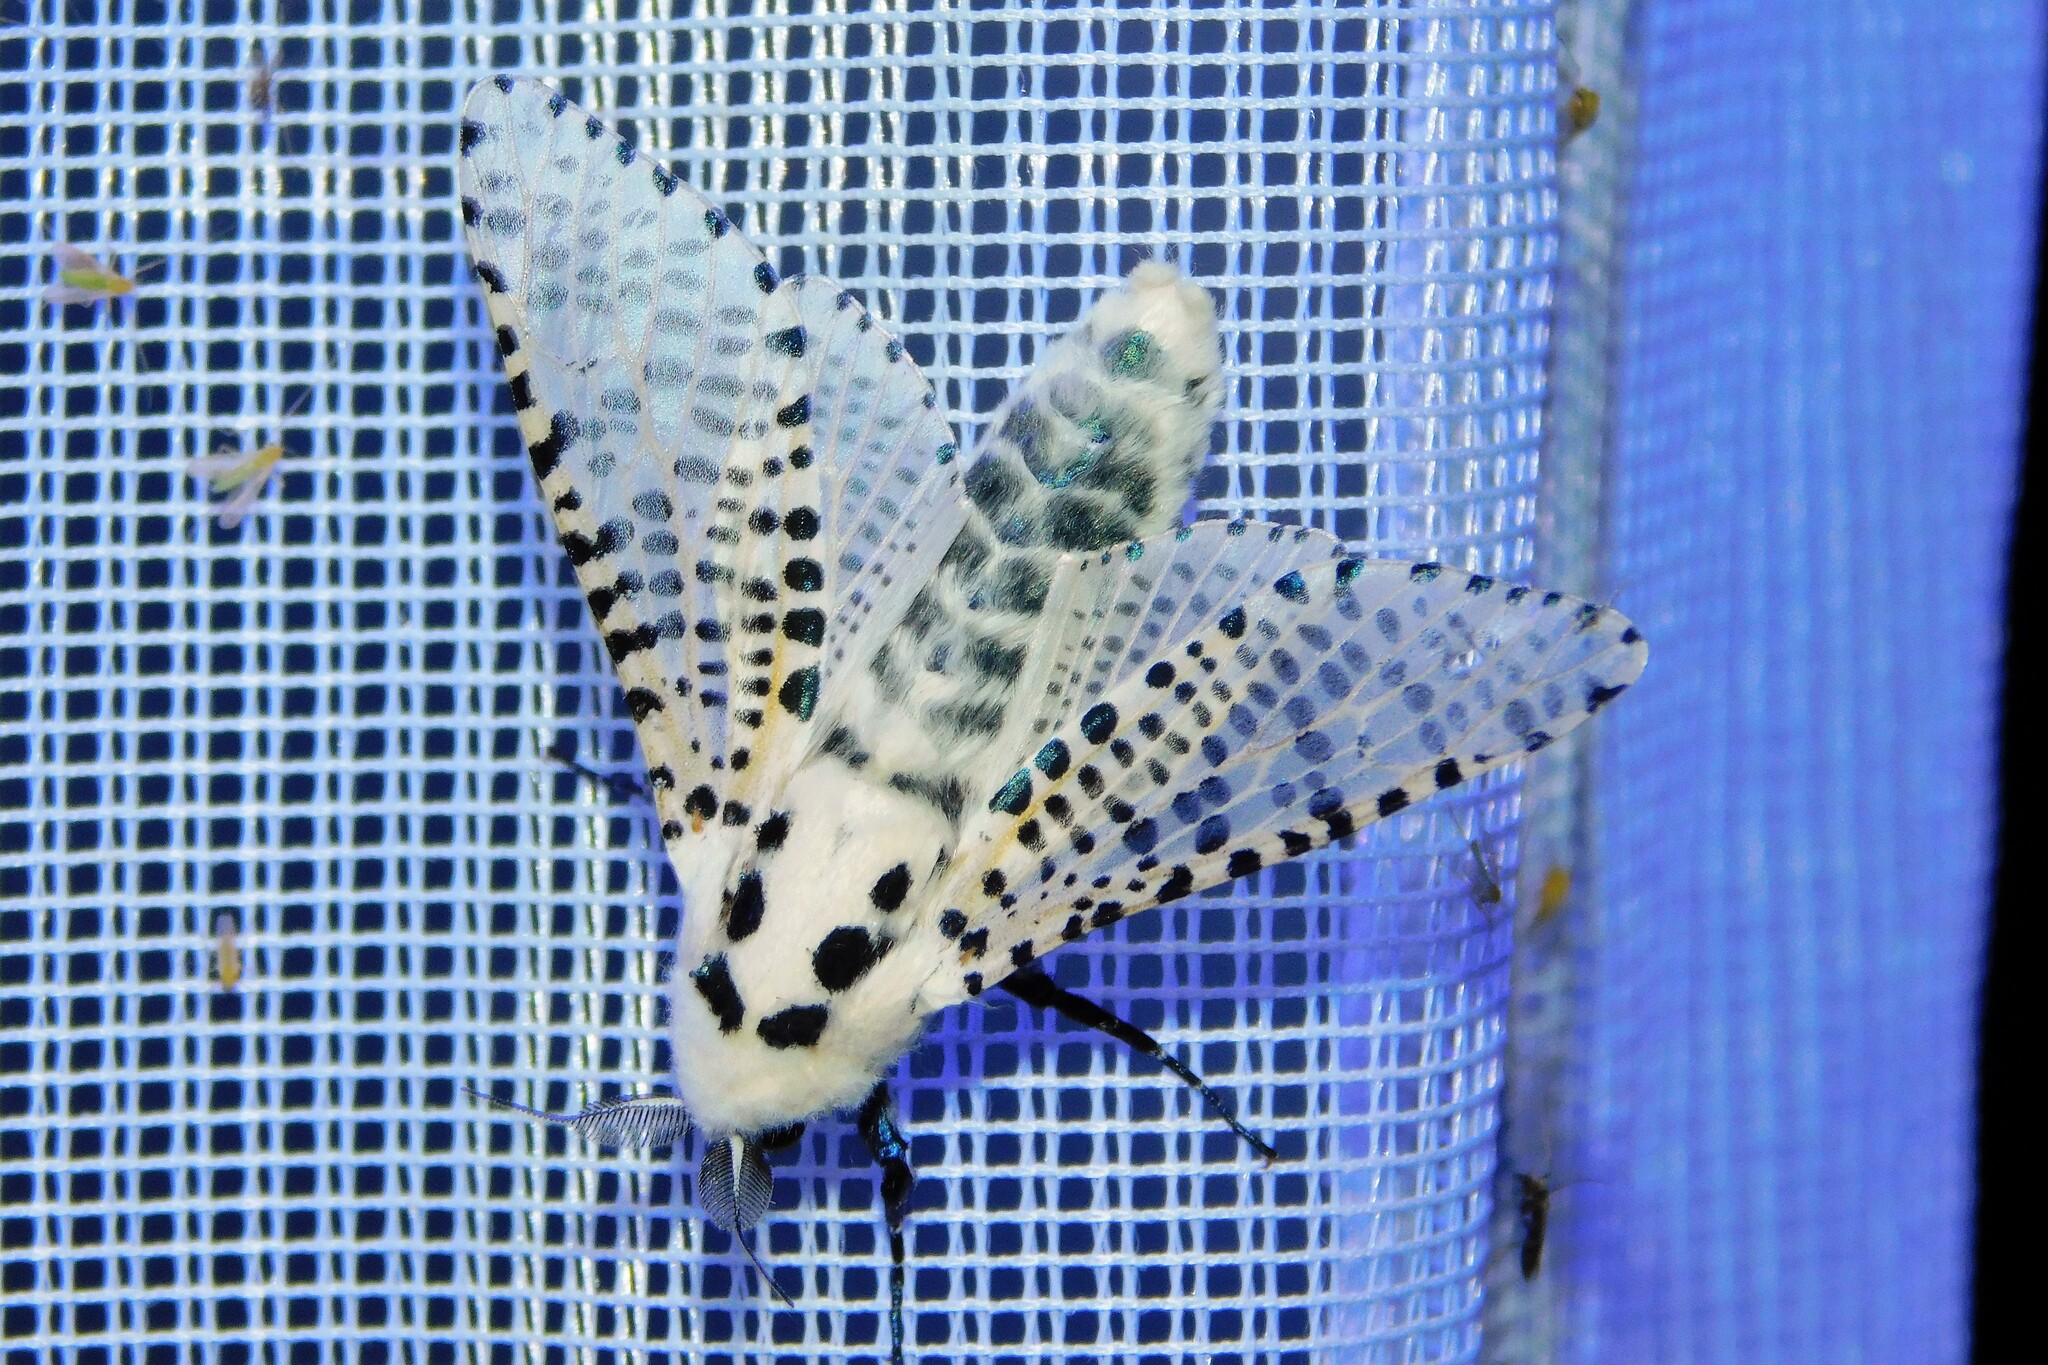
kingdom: Animalia
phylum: Arthropoda
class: Insecta
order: Lepidoptera
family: Cossidae
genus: Zeuzera
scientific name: Zeuzera pyrina
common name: Leopard moth
